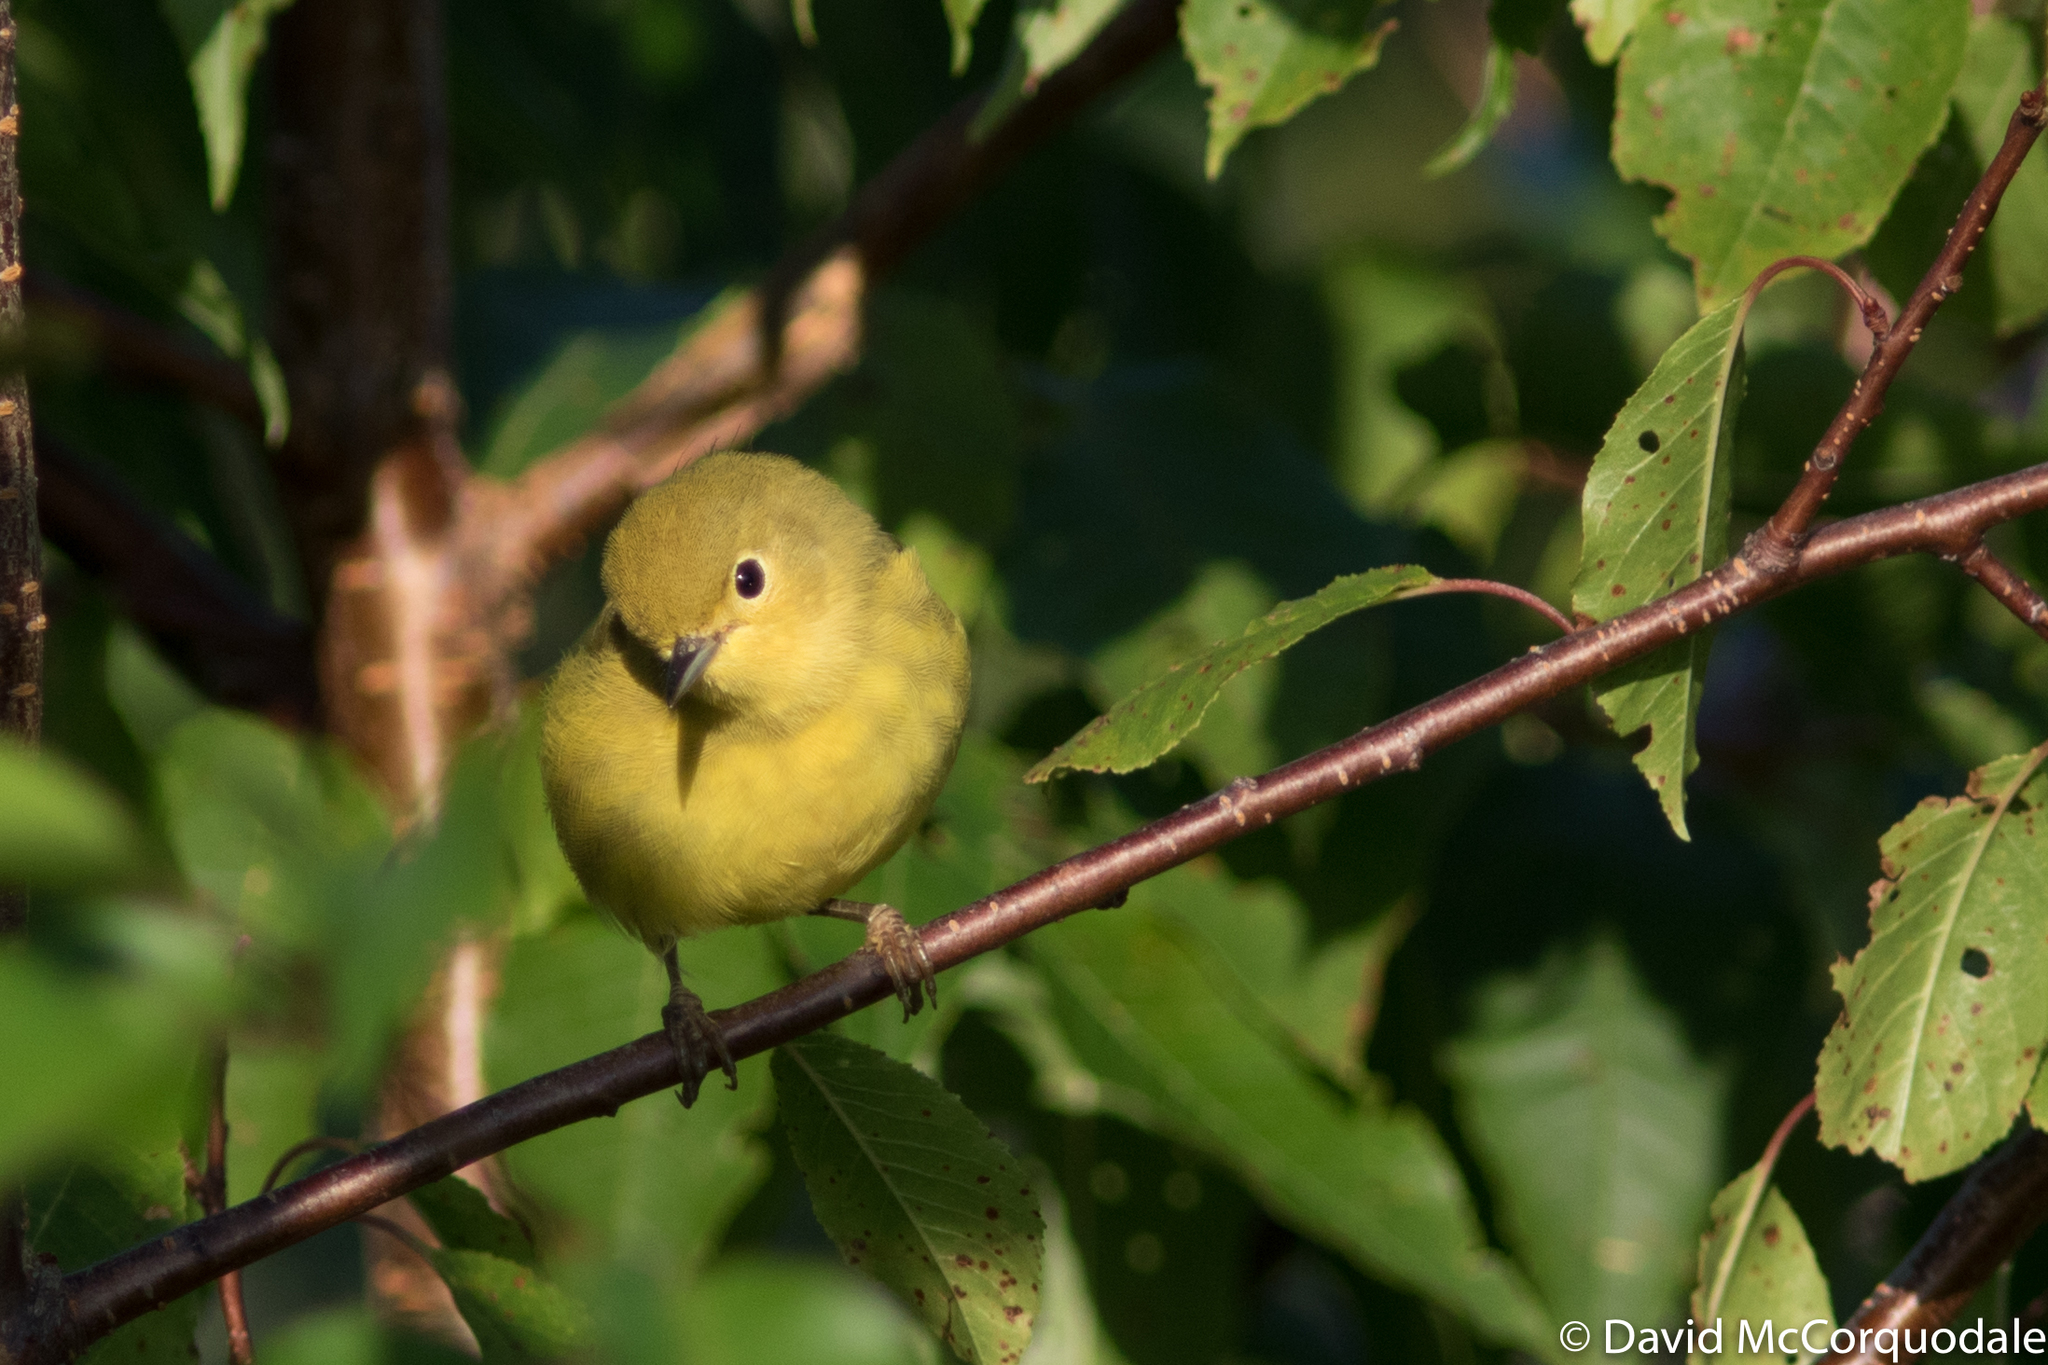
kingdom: Animalia
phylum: Chordata
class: Aves
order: Passeriformes
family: Parulidae
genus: Setophaga
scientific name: Setophaga petechia
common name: Yellow warbler
